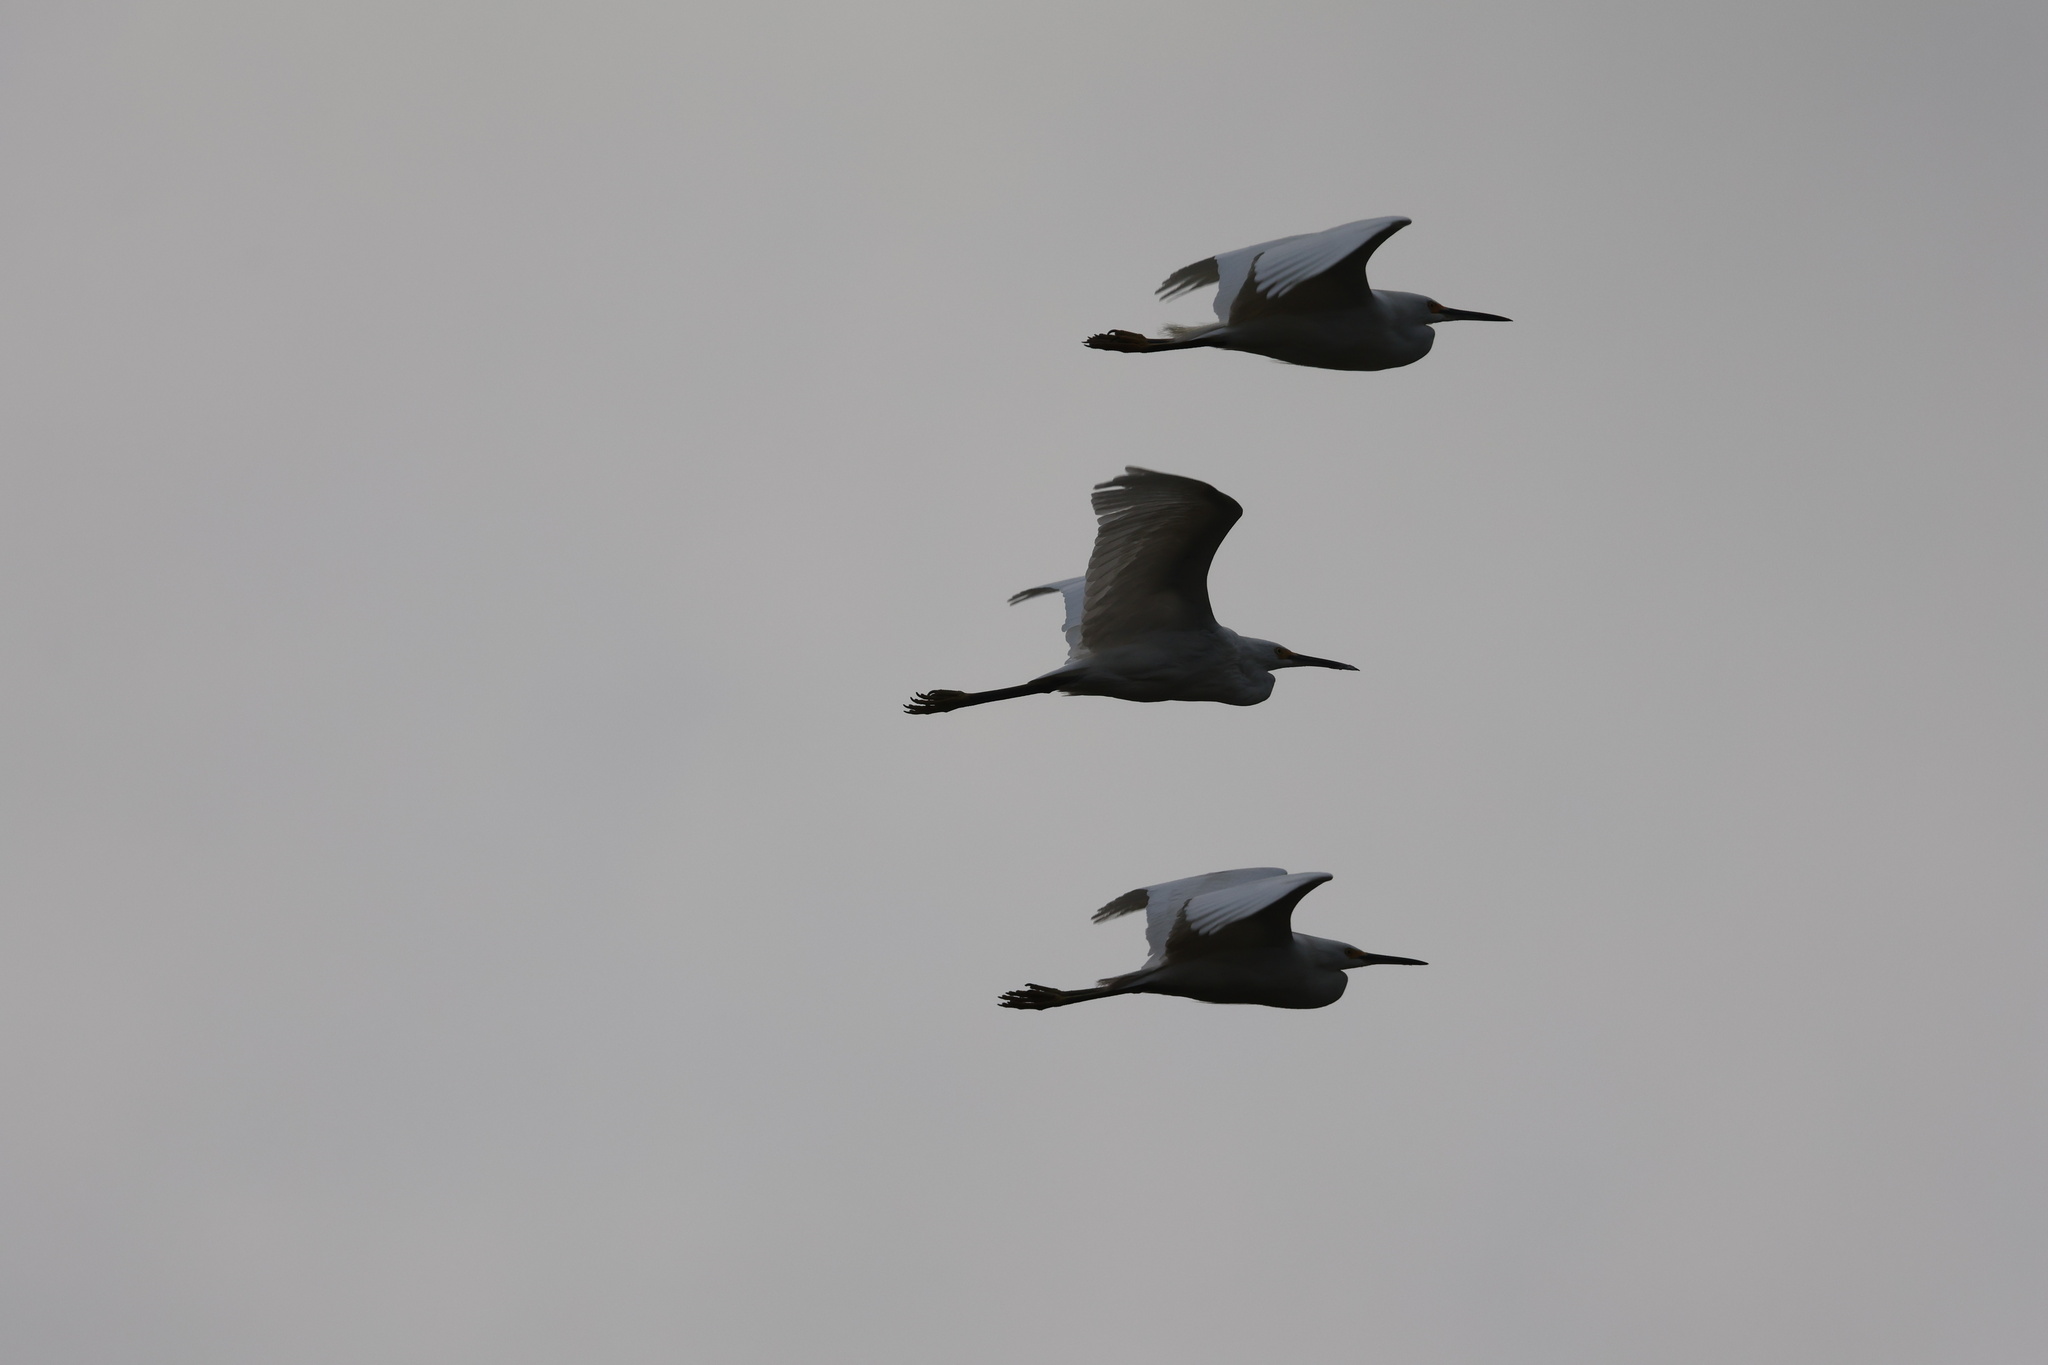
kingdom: Animalia
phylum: Chordata
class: Aves
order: Pelecaniformes
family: Ardeidae
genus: Egretta
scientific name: Egretta thula
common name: Snowy egret
